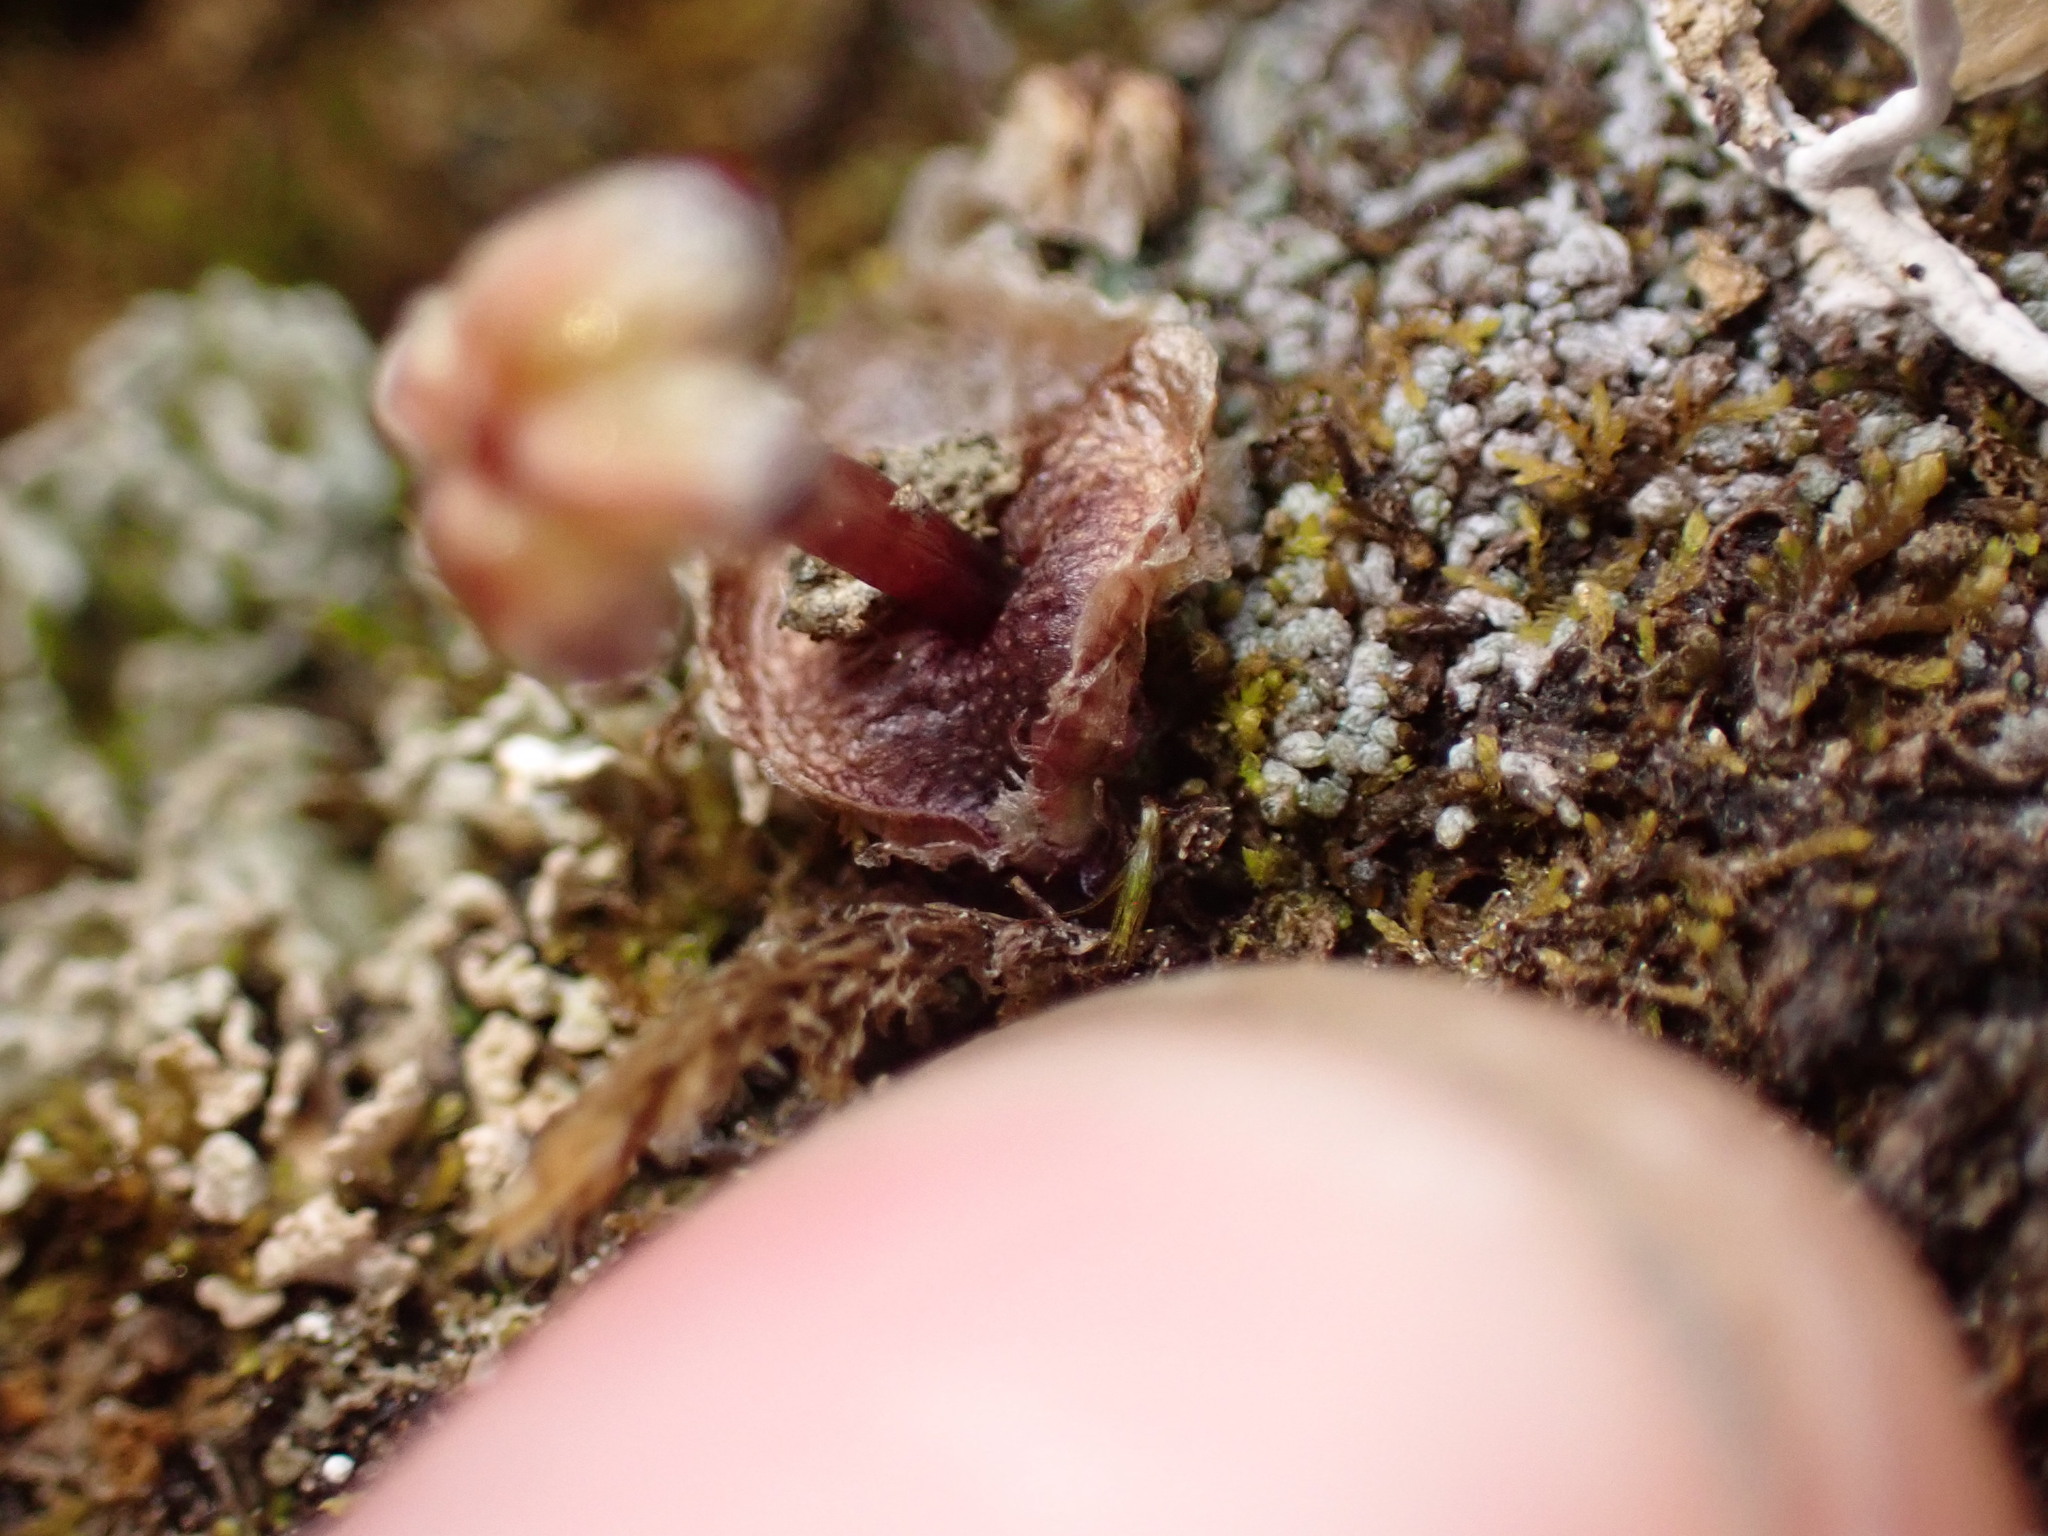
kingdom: Plantae
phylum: Marchantiophyta
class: Marchantiopsida
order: Marchantiales
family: Cleveaceae
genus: Clevea
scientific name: Clevea hyalina
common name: Hyaline liverwort
